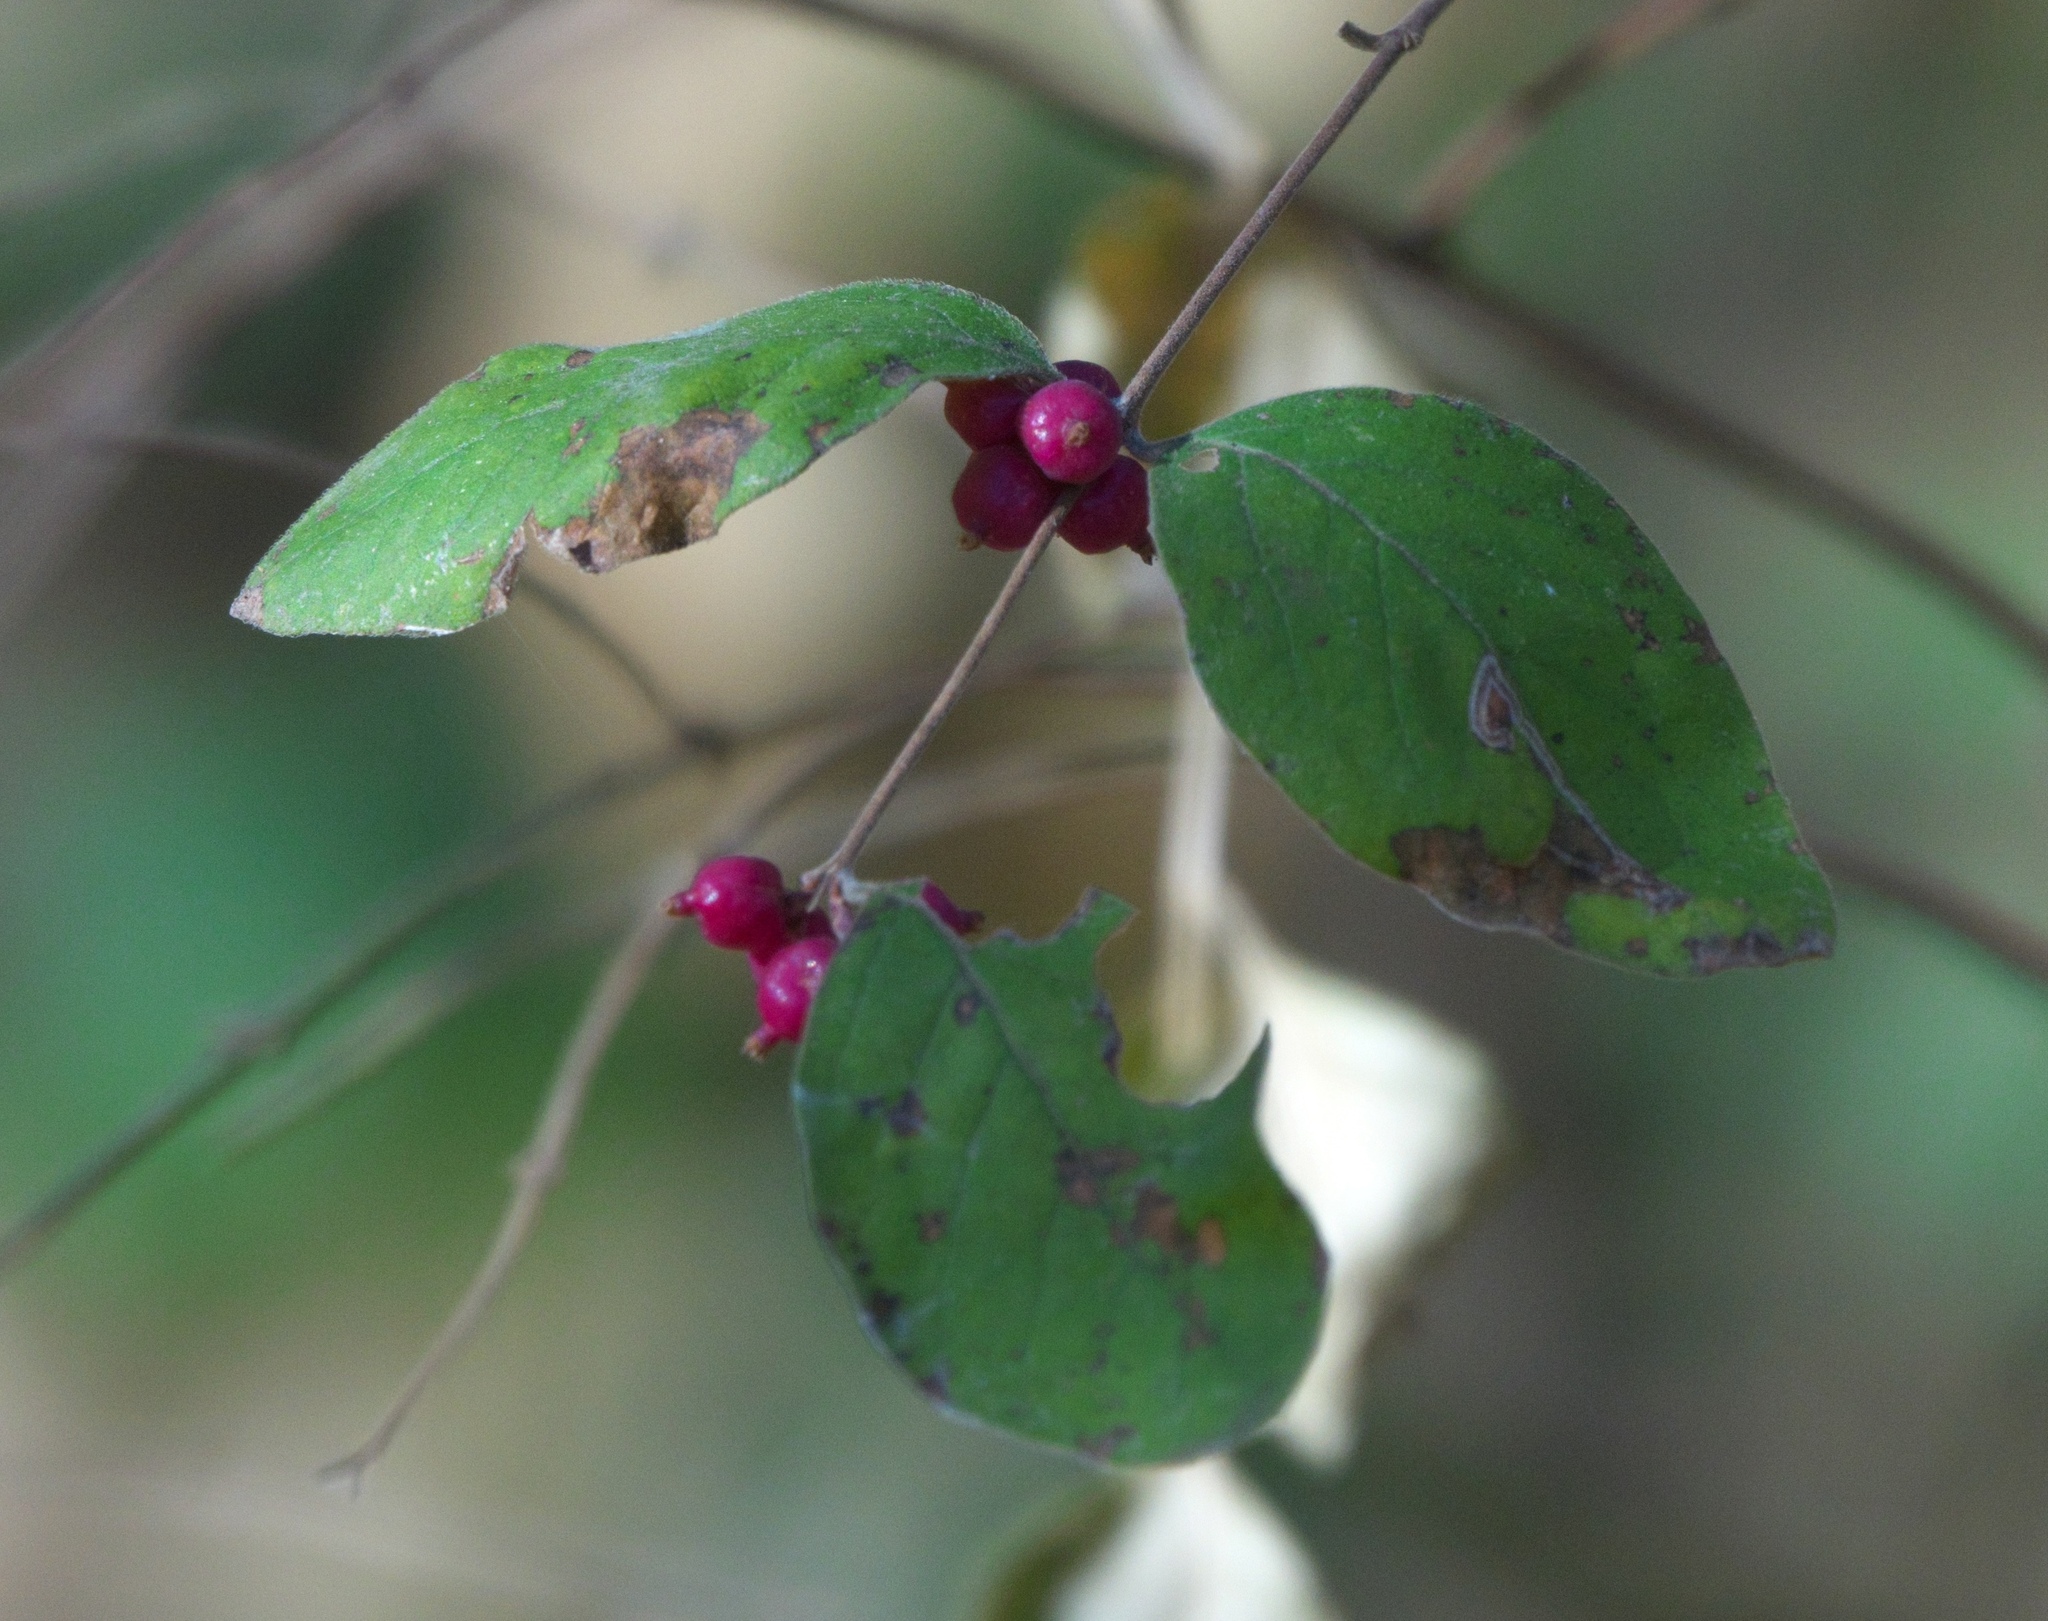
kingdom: Plantae
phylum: Tracheophyta
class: Magnoliopsida
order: Dipsacales
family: Caprifoliaceae
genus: Symphoricarpos
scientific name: Symphoricarpos orbiculatus
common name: Coralberry
